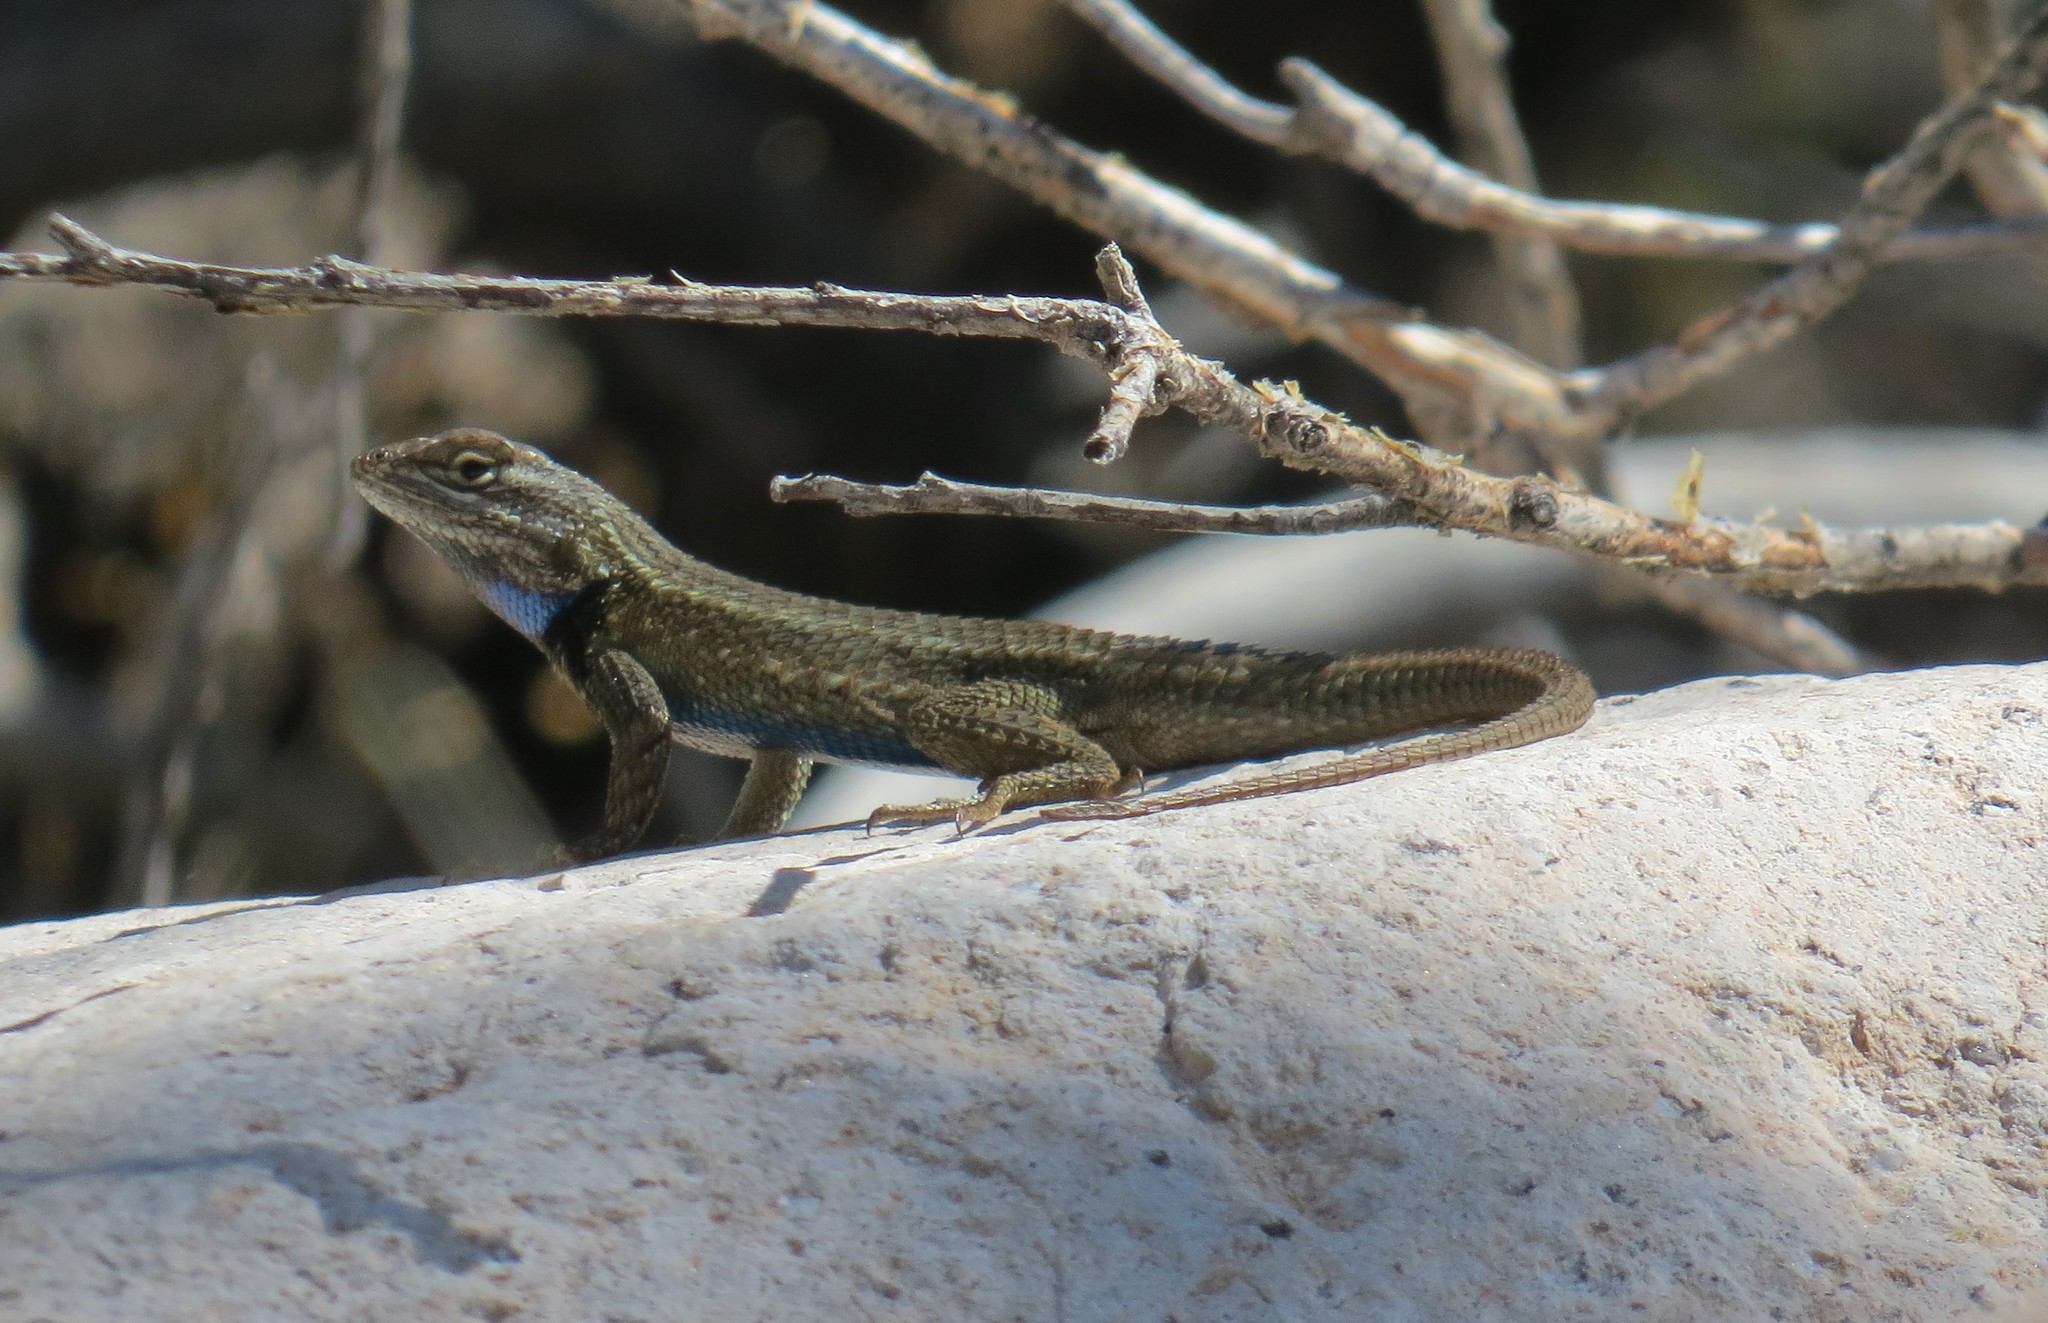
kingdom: Animalia
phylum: Chordata
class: Squamata
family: Phrynosomatidae
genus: Sceloporus
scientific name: Sceloporus cowlesi
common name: White sands prairie lizard
